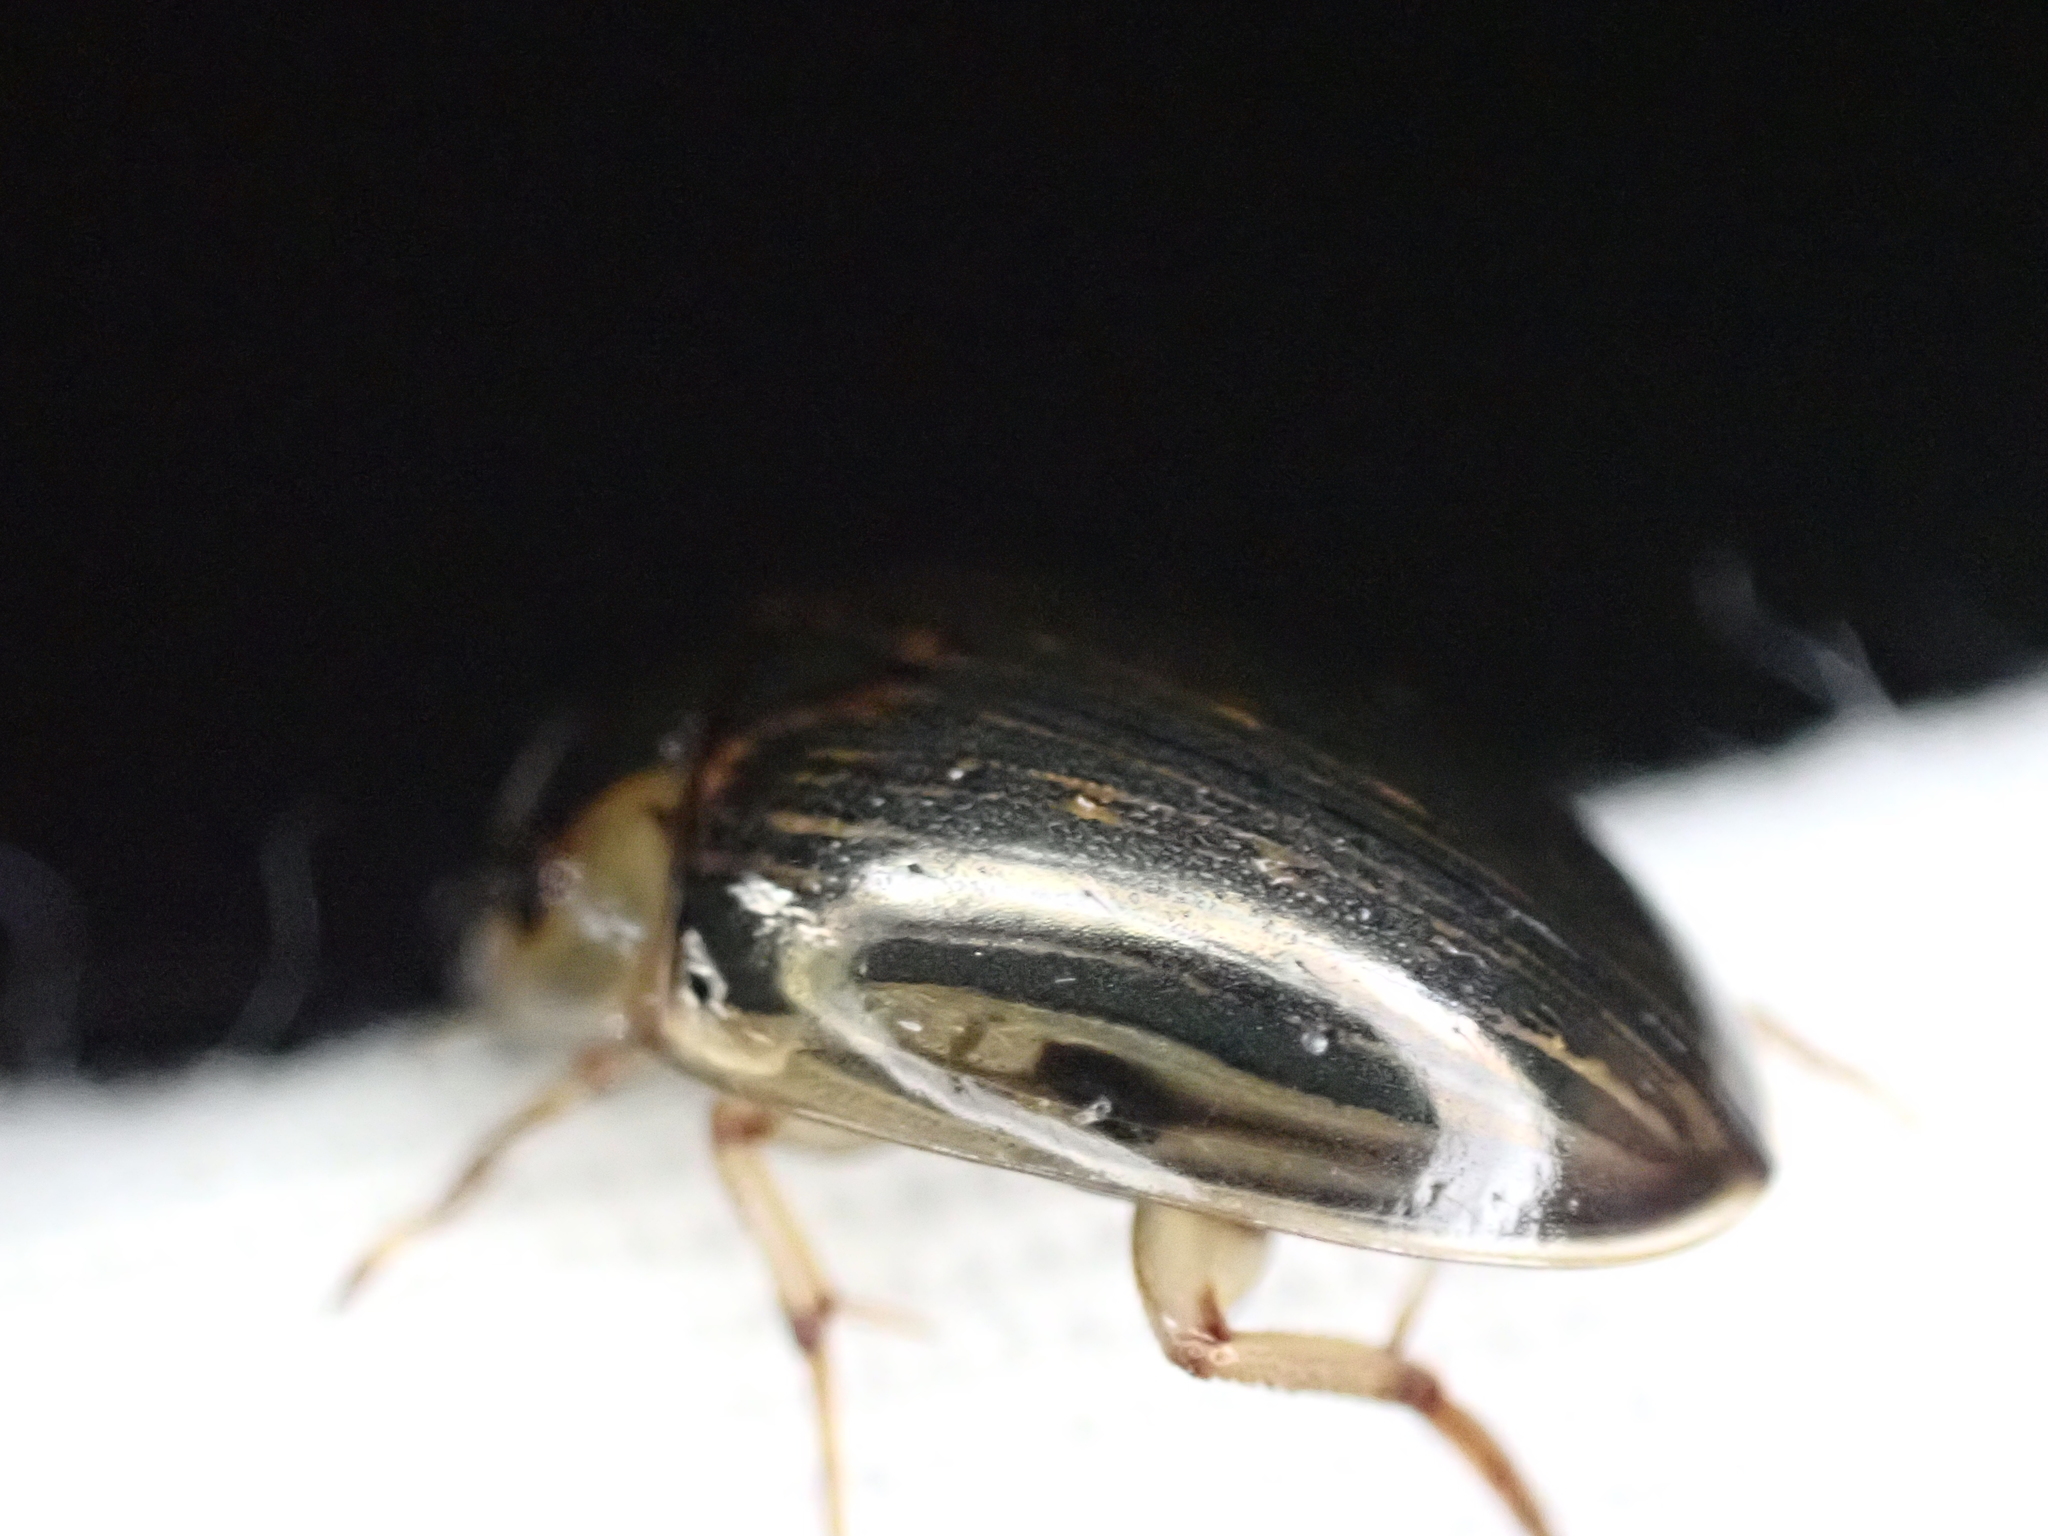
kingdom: Animalia
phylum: Arthropoda
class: Insecta
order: Coleoptera
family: Hydrophilidae
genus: Tropisternus
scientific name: Tropisternus collaris
